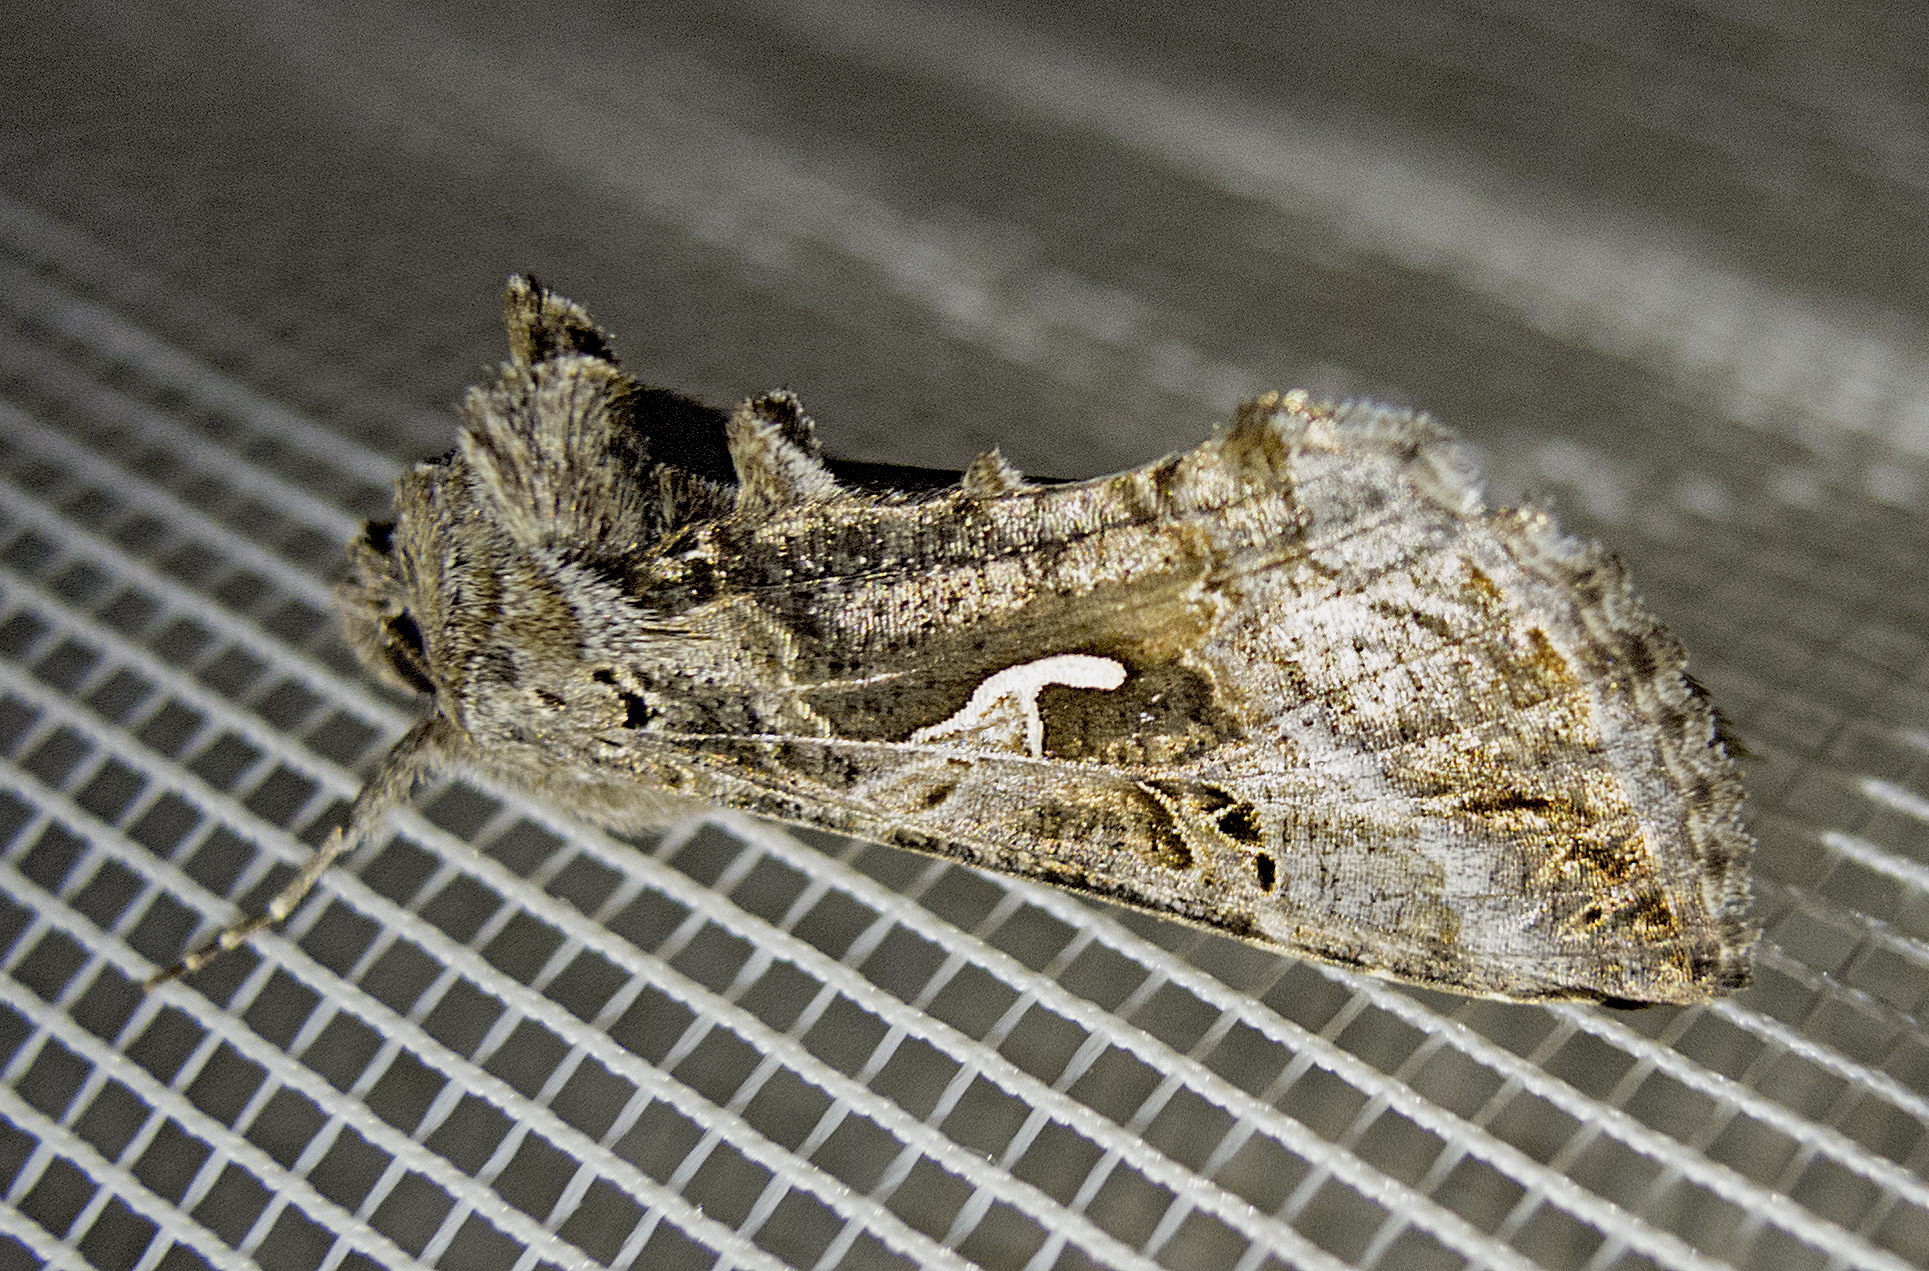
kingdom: Animalia
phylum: Arthropoda
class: Insecta
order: Lepidoptera
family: Noctuidae
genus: Autographa
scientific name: Autographa gamma
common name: Silver y
